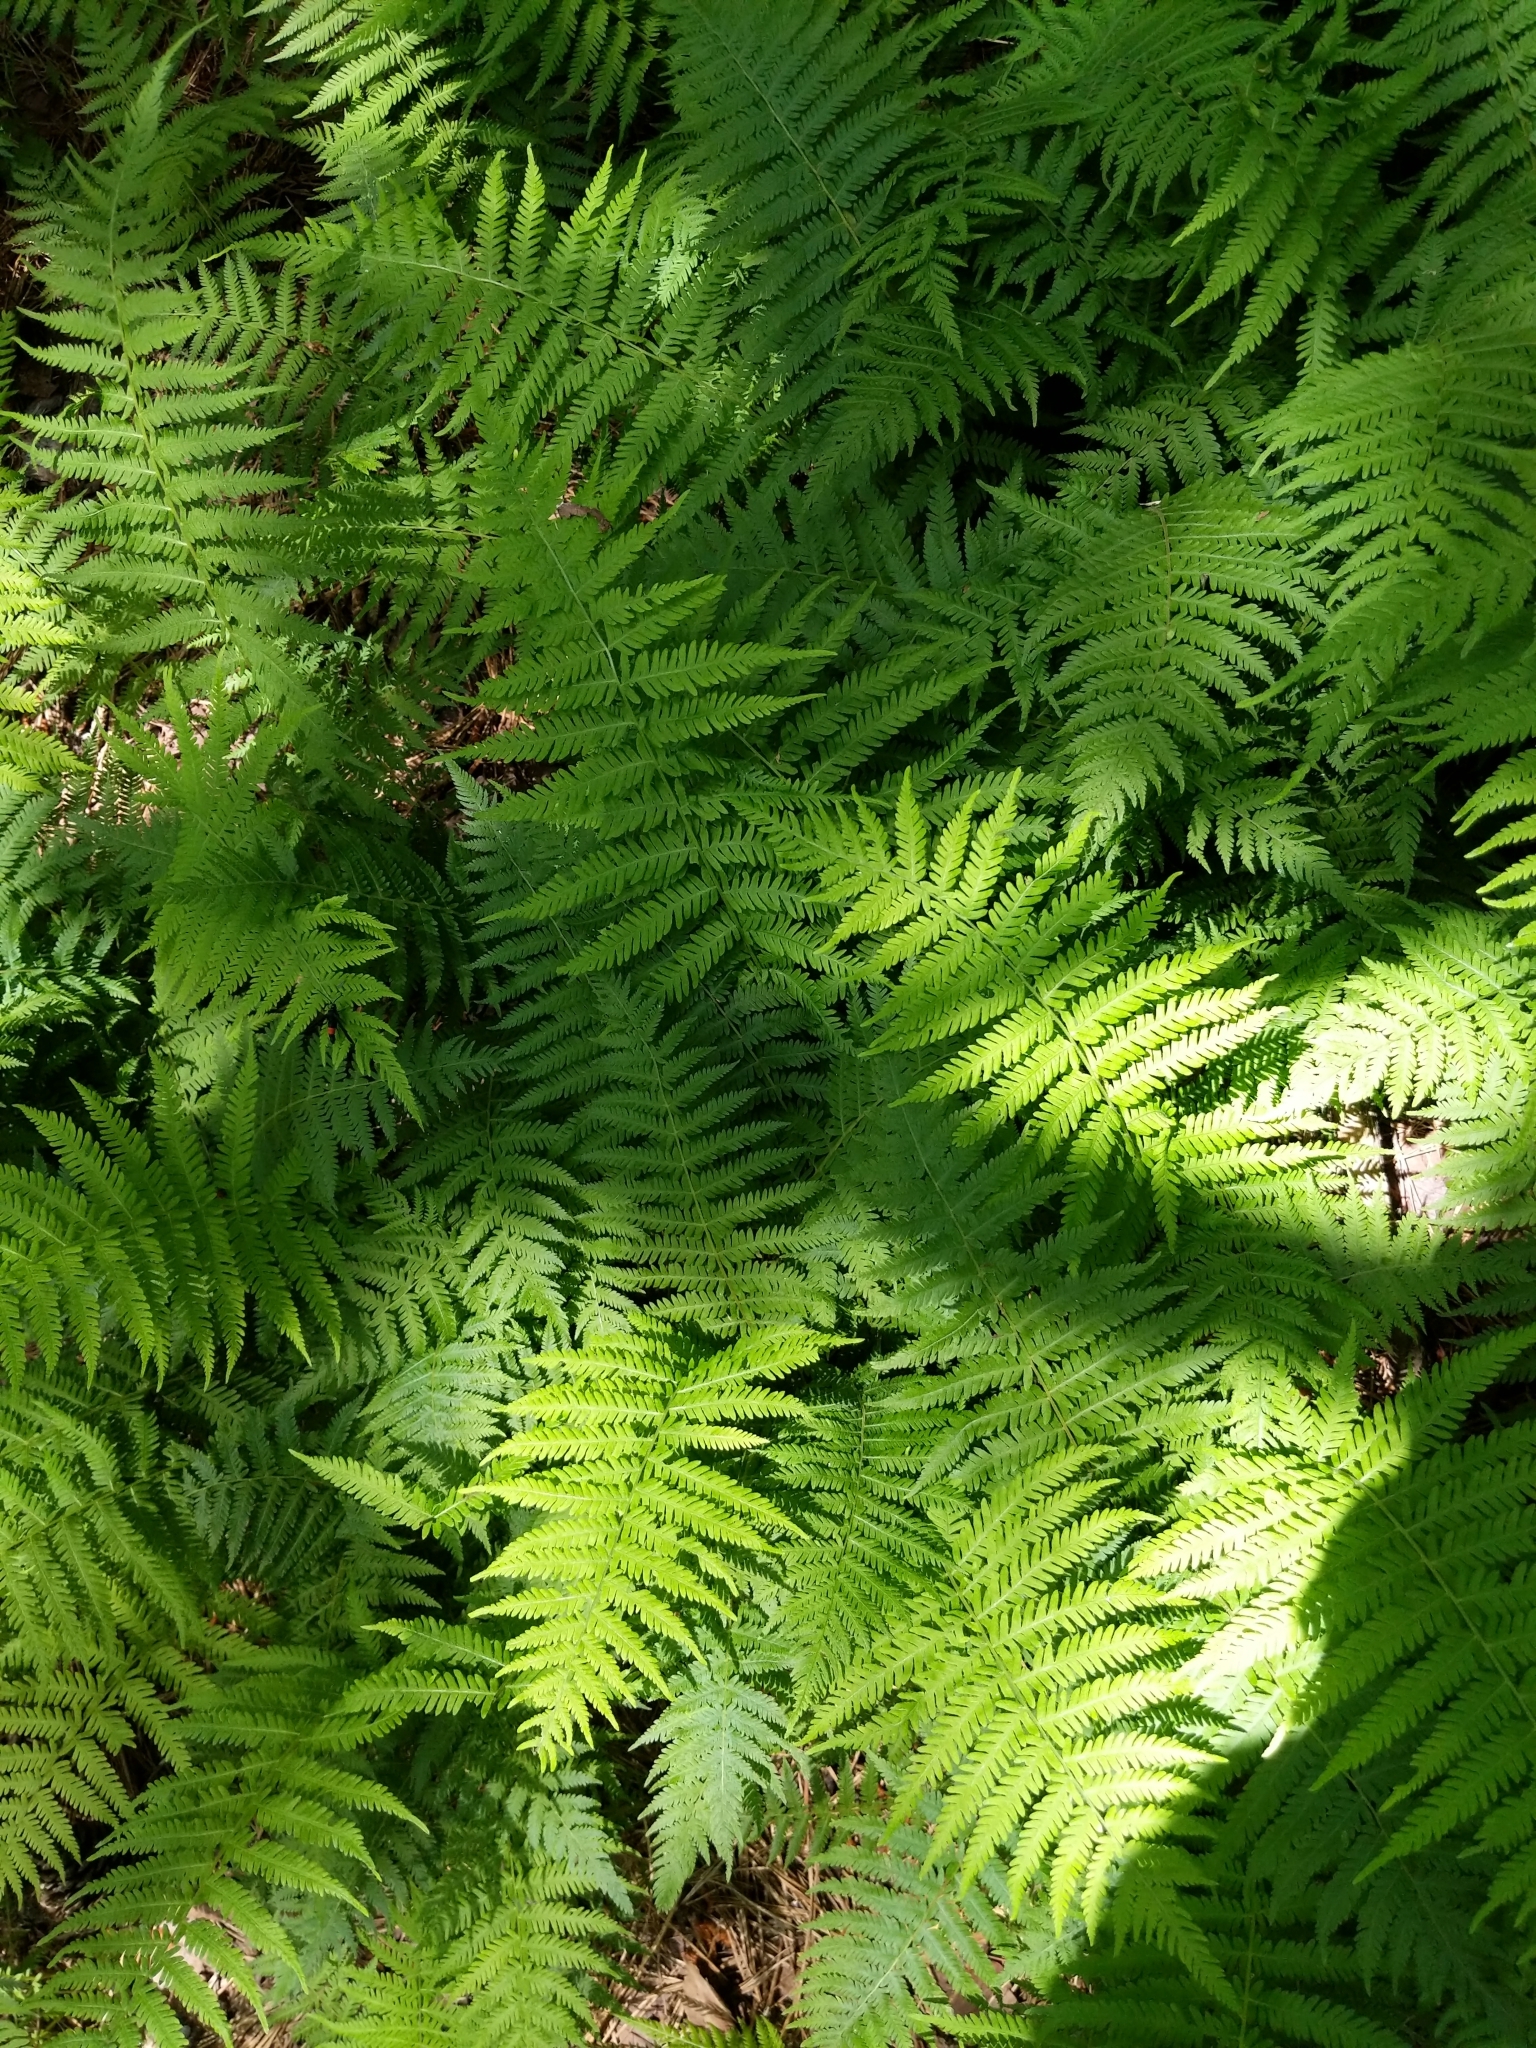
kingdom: Plantae
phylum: Tracheophyta
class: Polypodiopsida
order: Polypodiales
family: Thelypteridaceae
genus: Amauropelta
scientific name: Amauropelta noveboracensis
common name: New york fern
